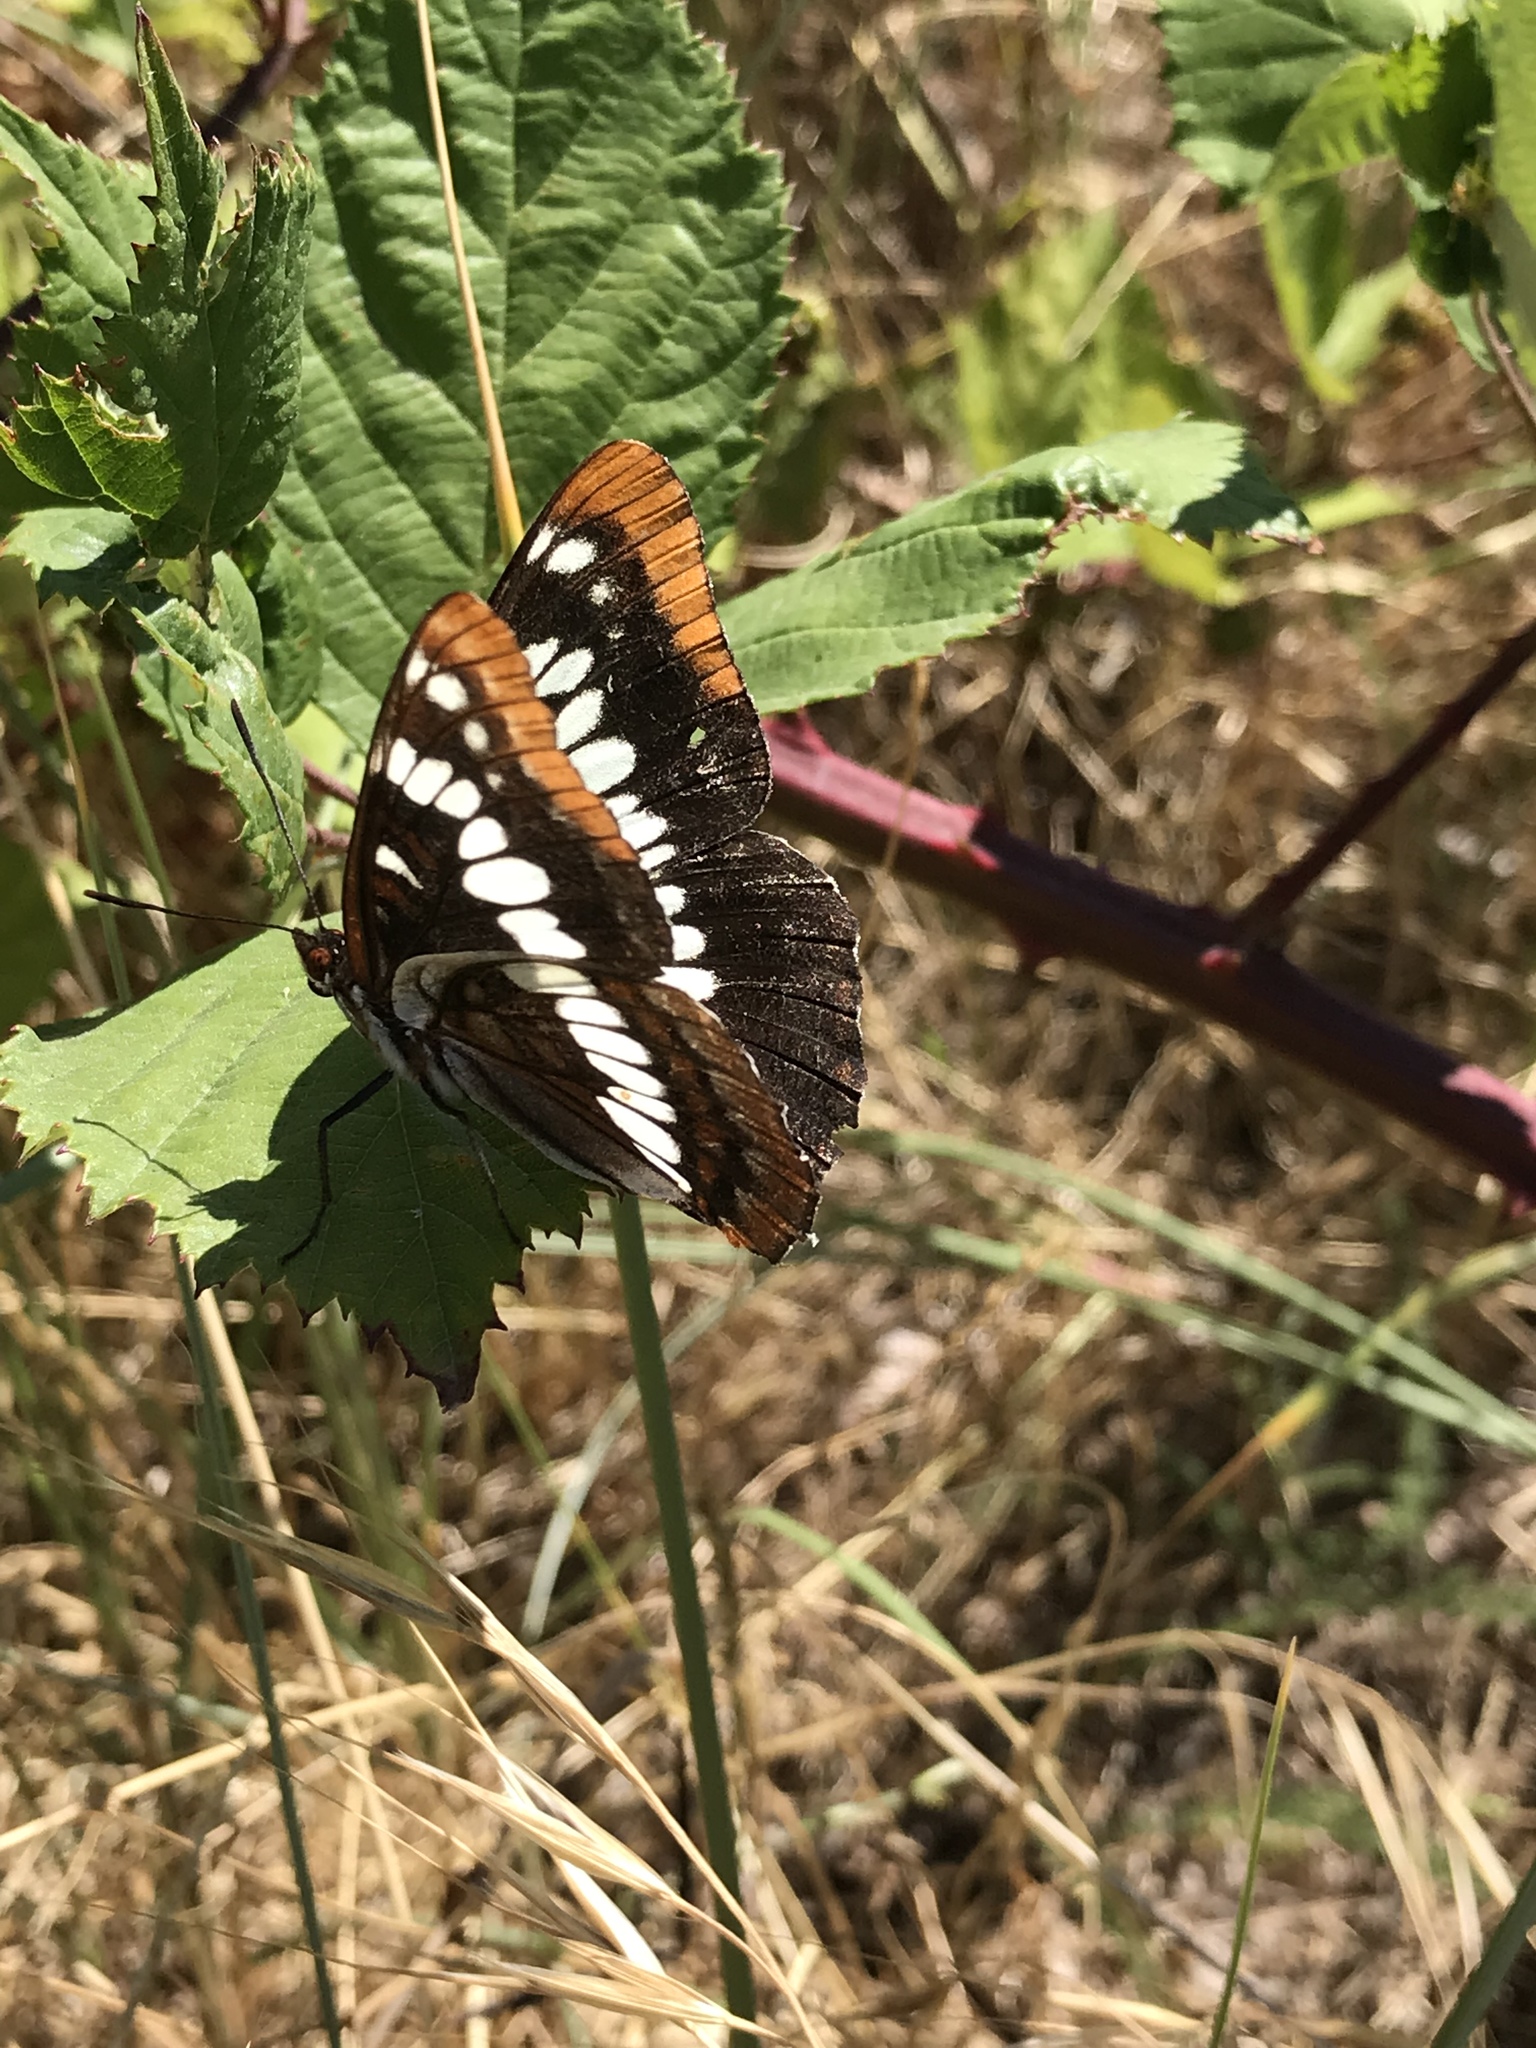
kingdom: Animalia
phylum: Arthropoda
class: Insecta
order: Lepidoptera
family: Nymphalidae
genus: Limenitis
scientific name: Limenitis lorquini
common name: Lorquin's admiral
